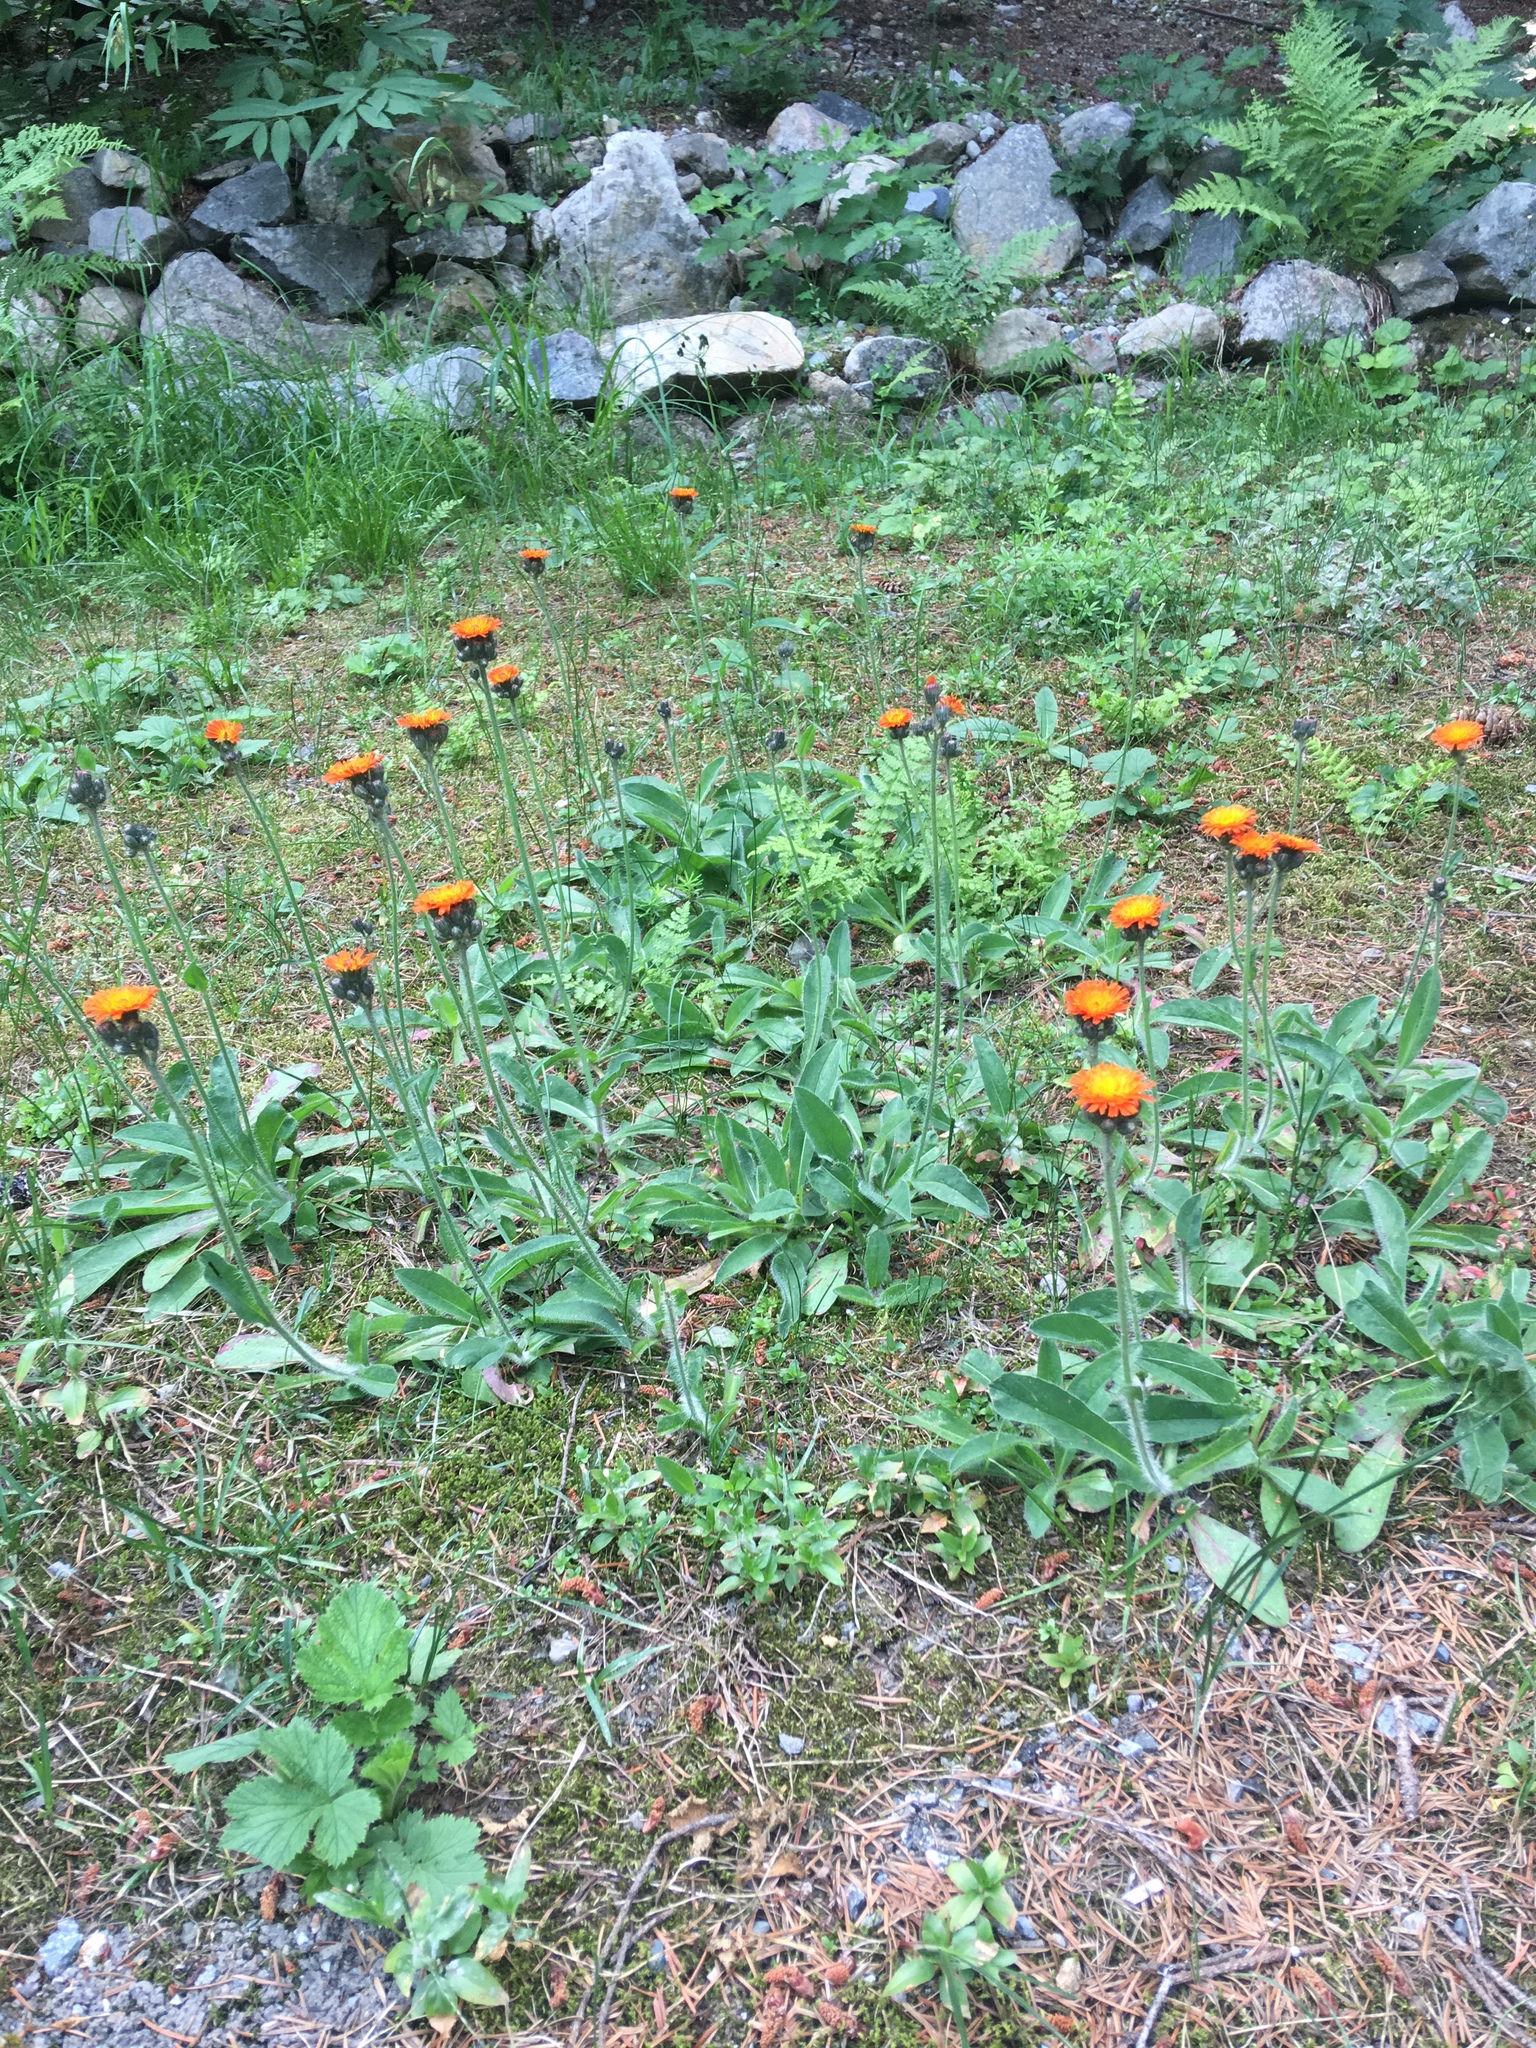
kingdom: Plantae
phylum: Tracheophyta
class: Magnoliopsida
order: Asterales
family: Asteraceae
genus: Pilosella
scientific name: Pilosella aurantiaca
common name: Fox-and-cubs
